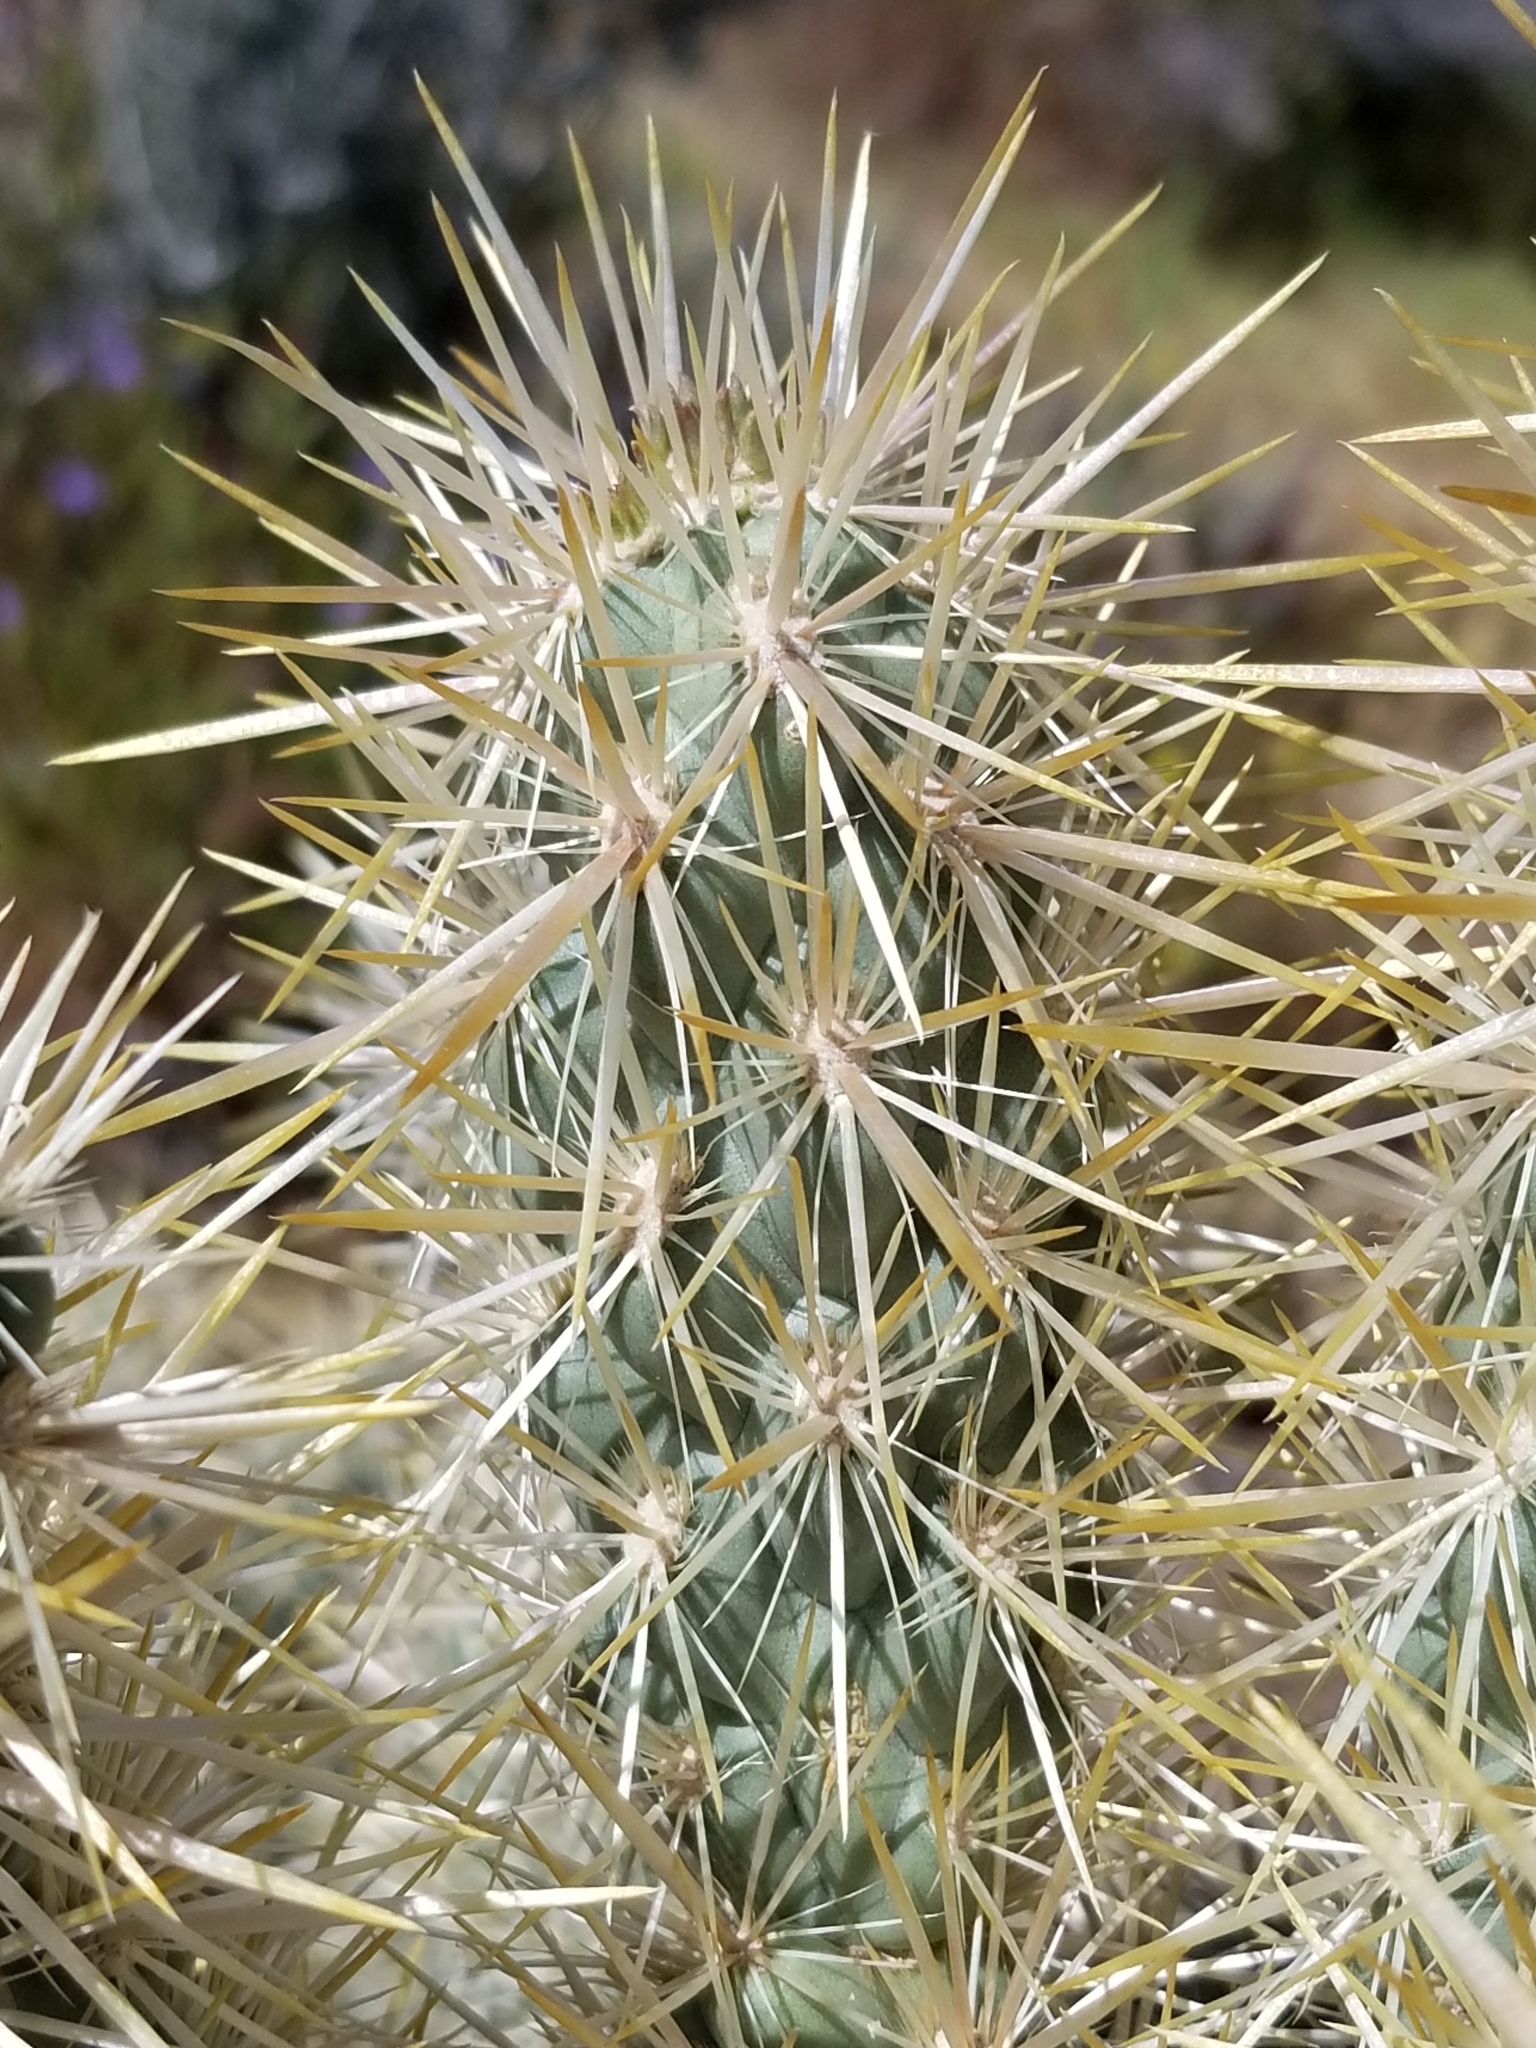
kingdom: Plantae
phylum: Tracheophyta
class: Magnoliopsida
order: Caryophyllales
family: Cactaceae
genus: Cylindropuntia
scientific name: Cylindropuntia echinocarpa
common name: Ground cholla
